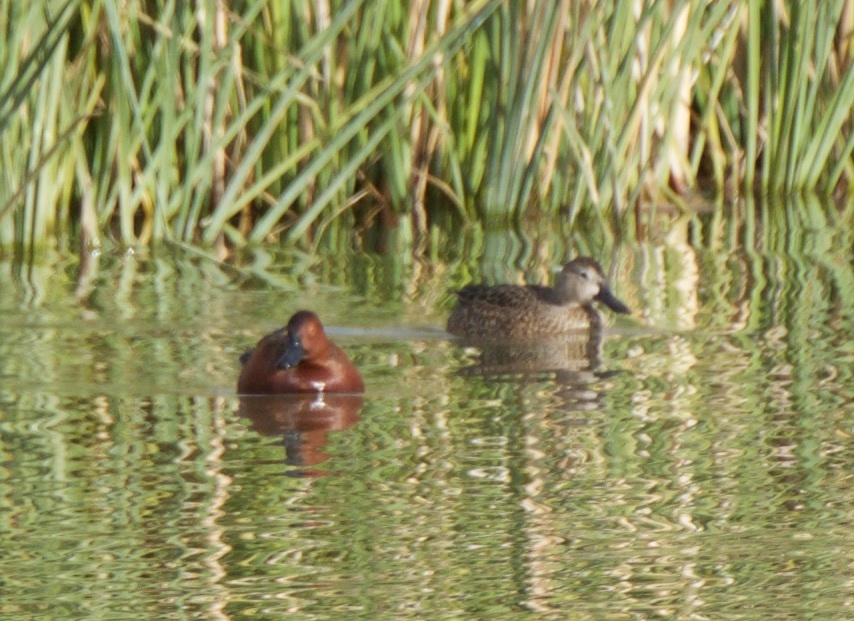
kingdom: Animalia
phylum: Chordata
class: Aves
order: Anseriformes
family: Anatidae
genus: Spatula
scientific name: Spatula cyanoptera
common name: Cinnamon teal
